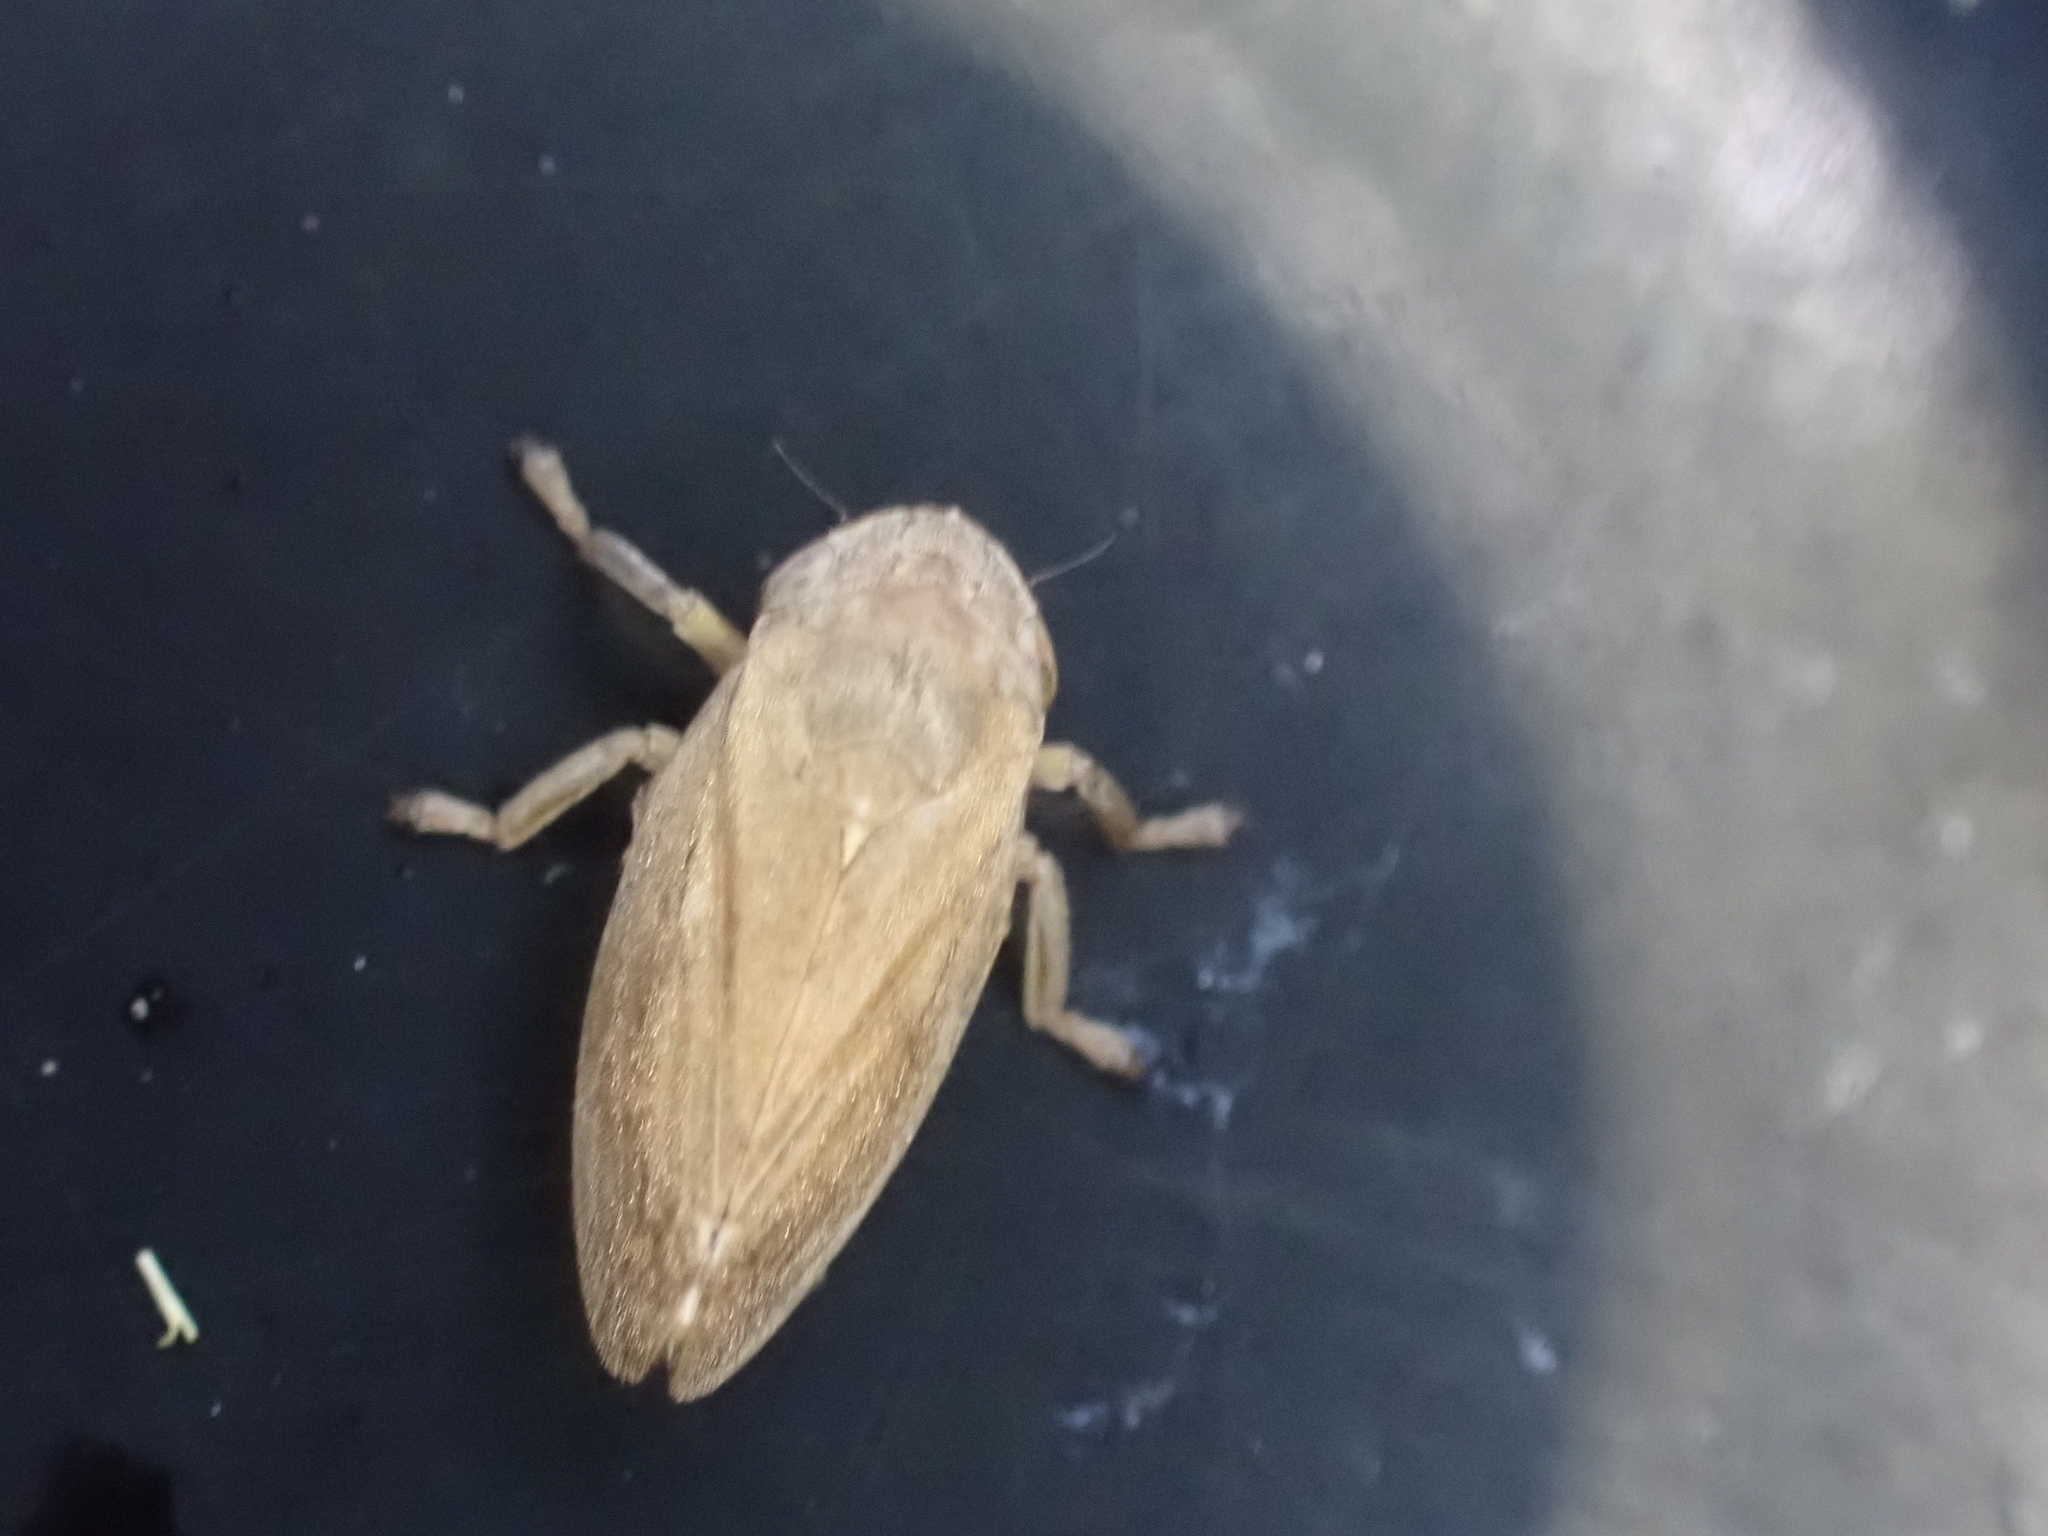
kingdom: Animalia
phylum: Arthropoda
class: Insecta
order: Hemiptera
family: Aphrophoridae
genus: Philaenus
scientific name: Philaenus spumarius
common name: Meadow spittlebug
